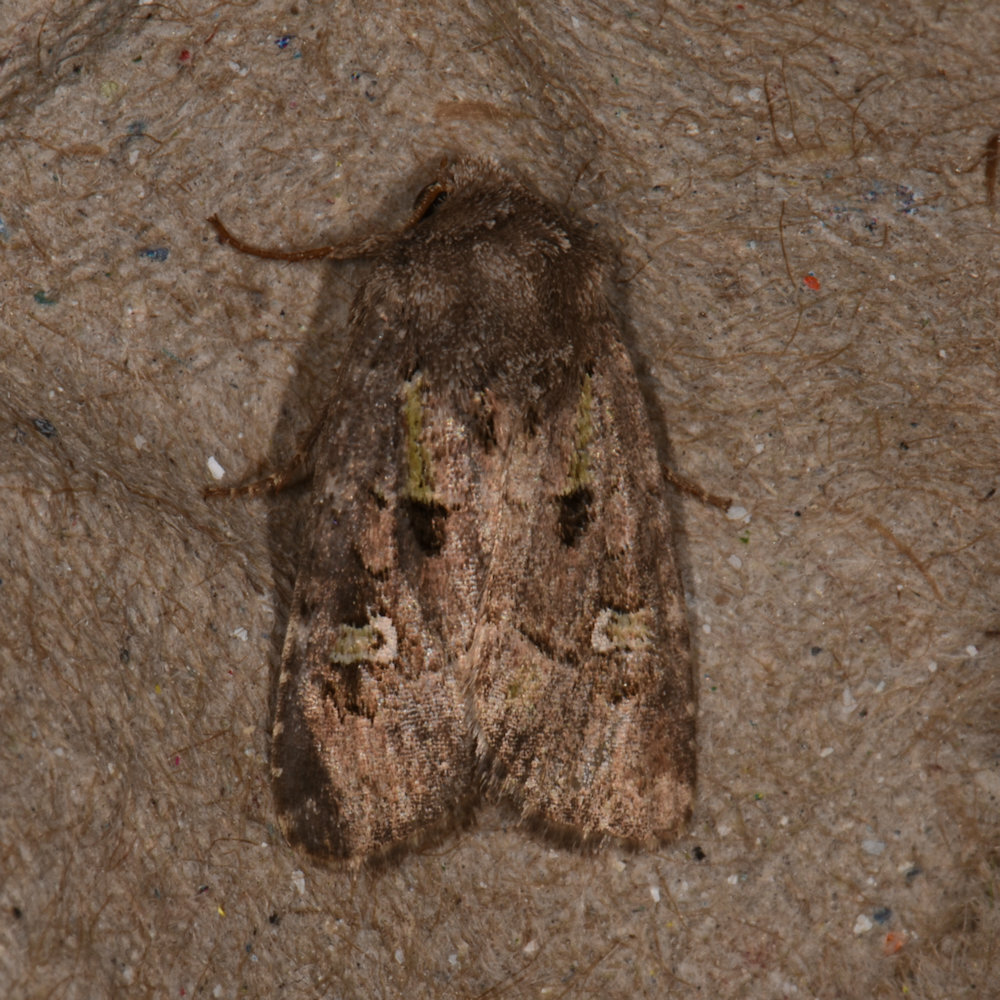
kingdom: Animalia
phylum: Arthropoda
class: Insecta
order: Lepidoptera
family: Noctuidae
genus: Lacinipolia
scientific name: Lacinipolia renigera
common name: Kidney-spotted minor
